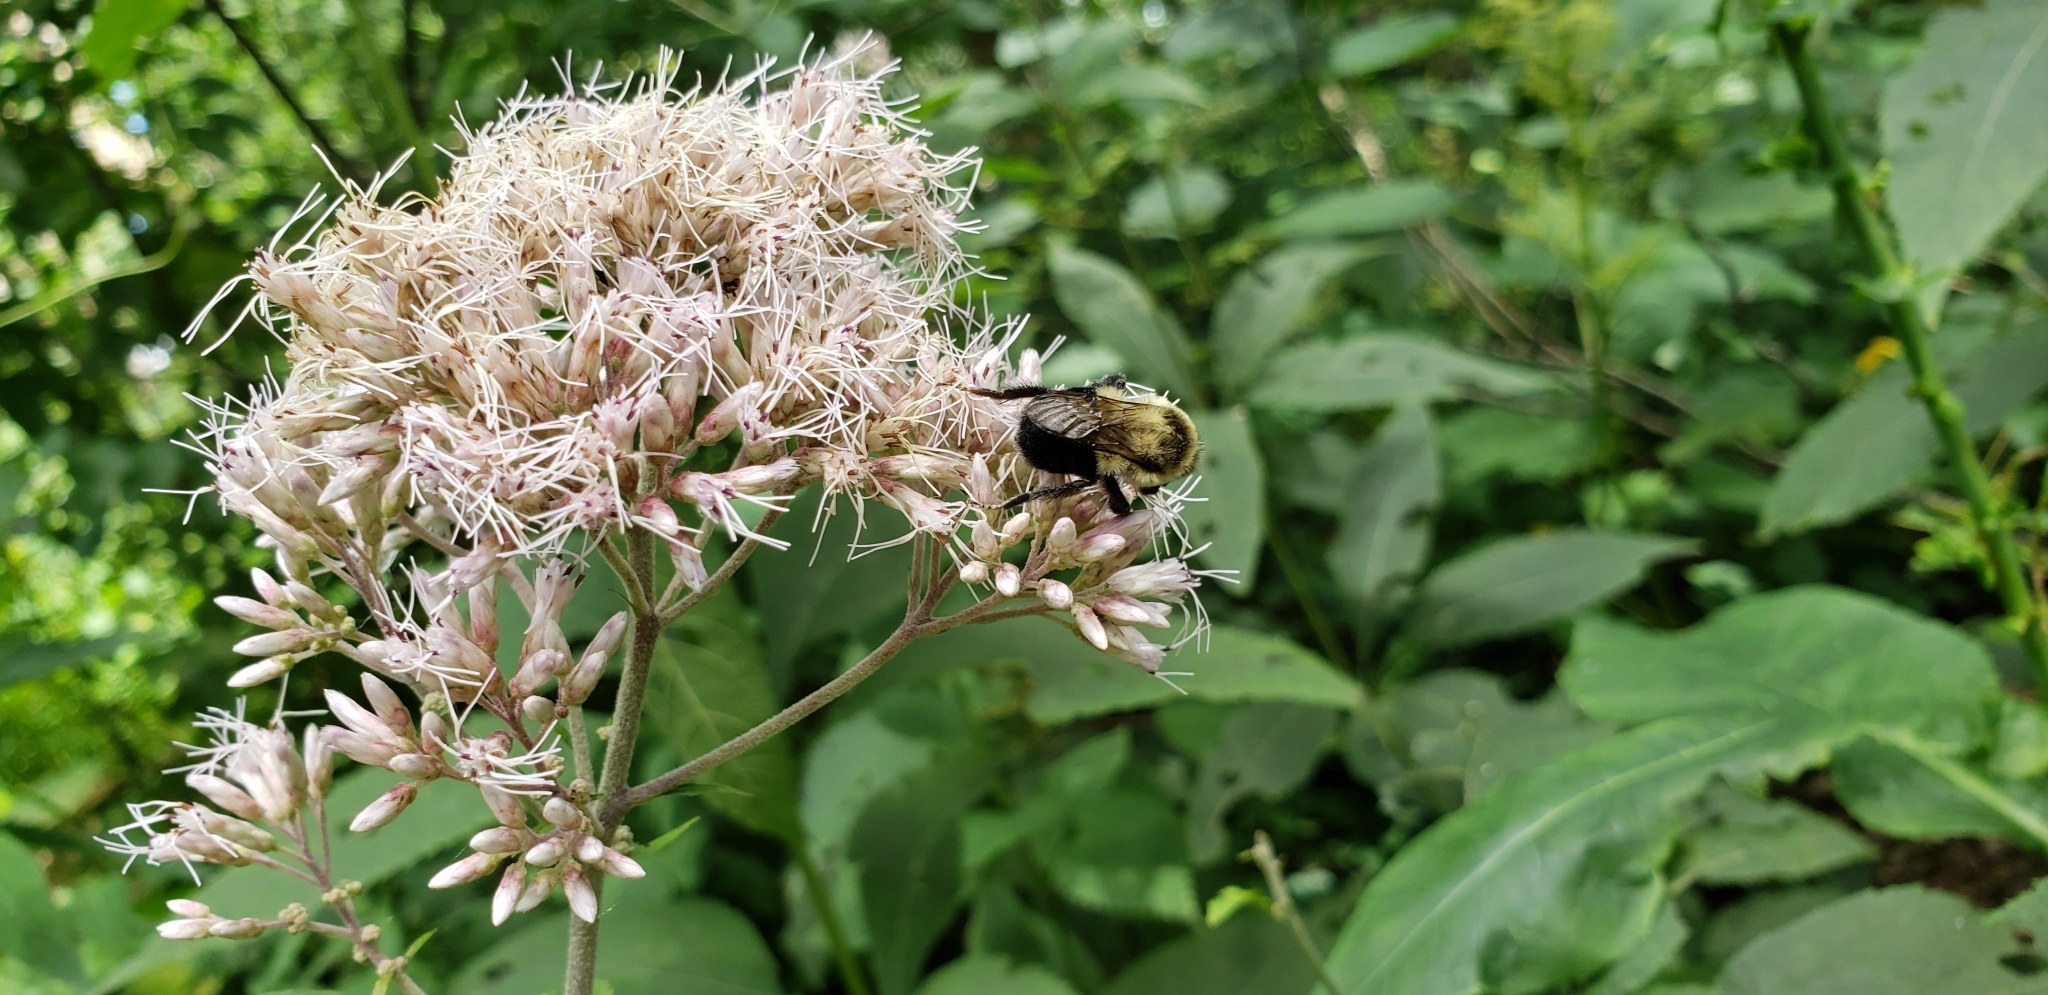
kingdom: Animalia
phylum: Arthropoda
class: Insecta
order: Hymenoptera
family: Apidae
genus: Bombus
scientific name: Bombus impatiens
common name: Common eastern bumble bee
